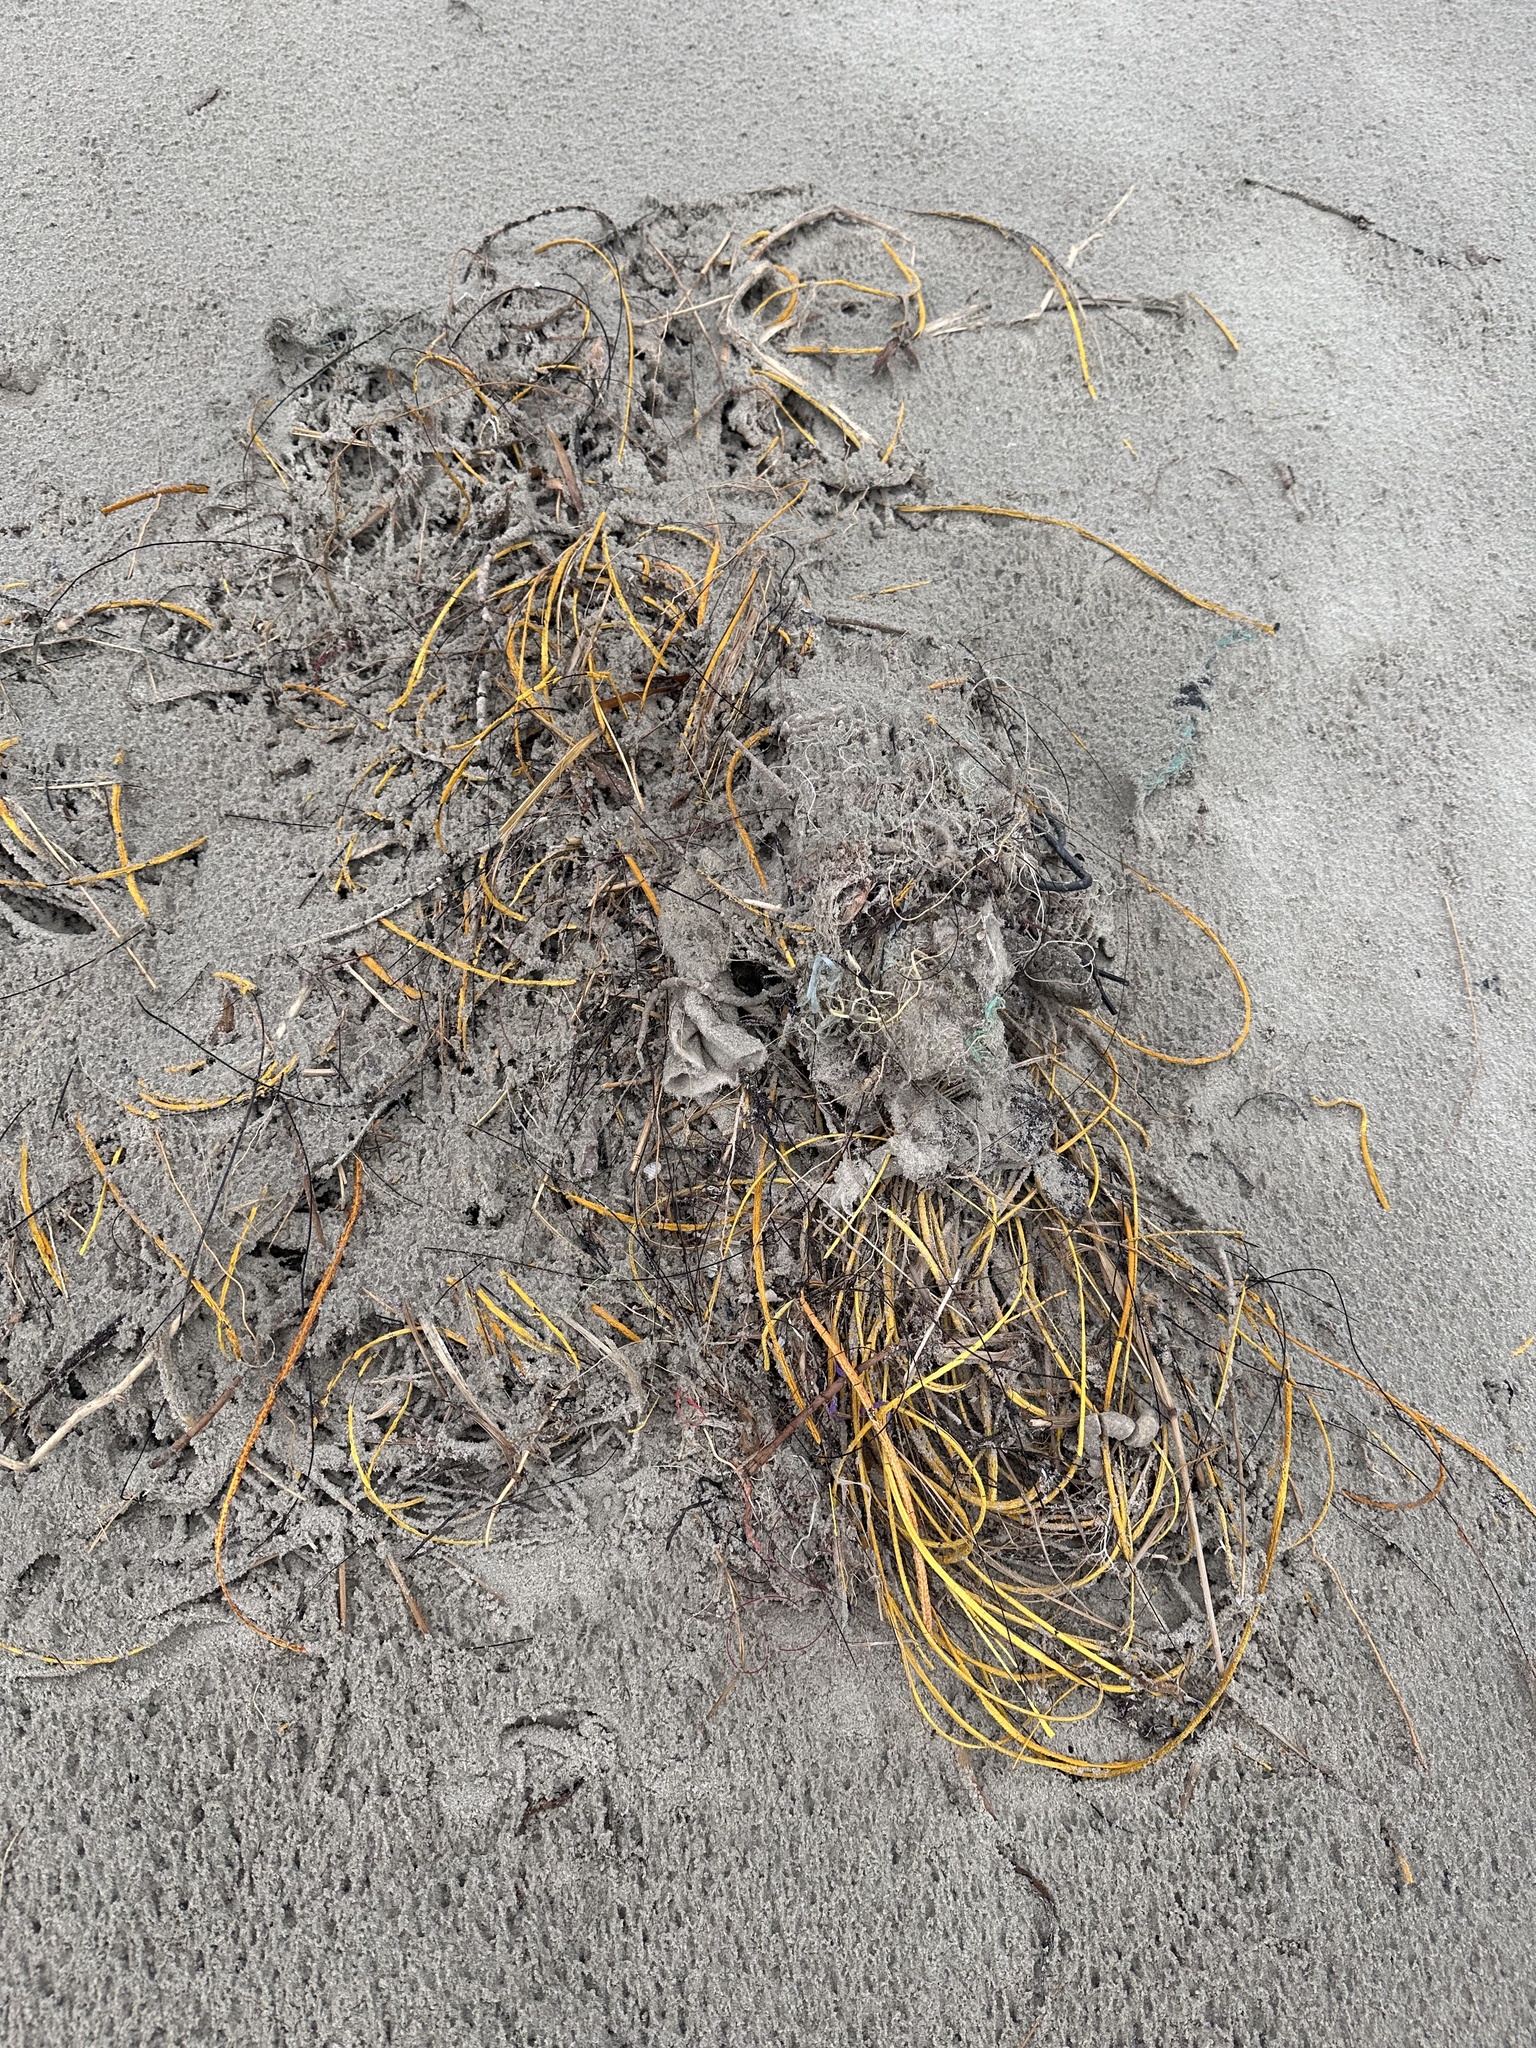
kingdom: Animalia
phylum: Cnidaria
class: Anthozoa
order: Malacalcyonacea
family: Gorgoniidae
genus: Leptogorgia
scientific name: Leptogorgia setacea
